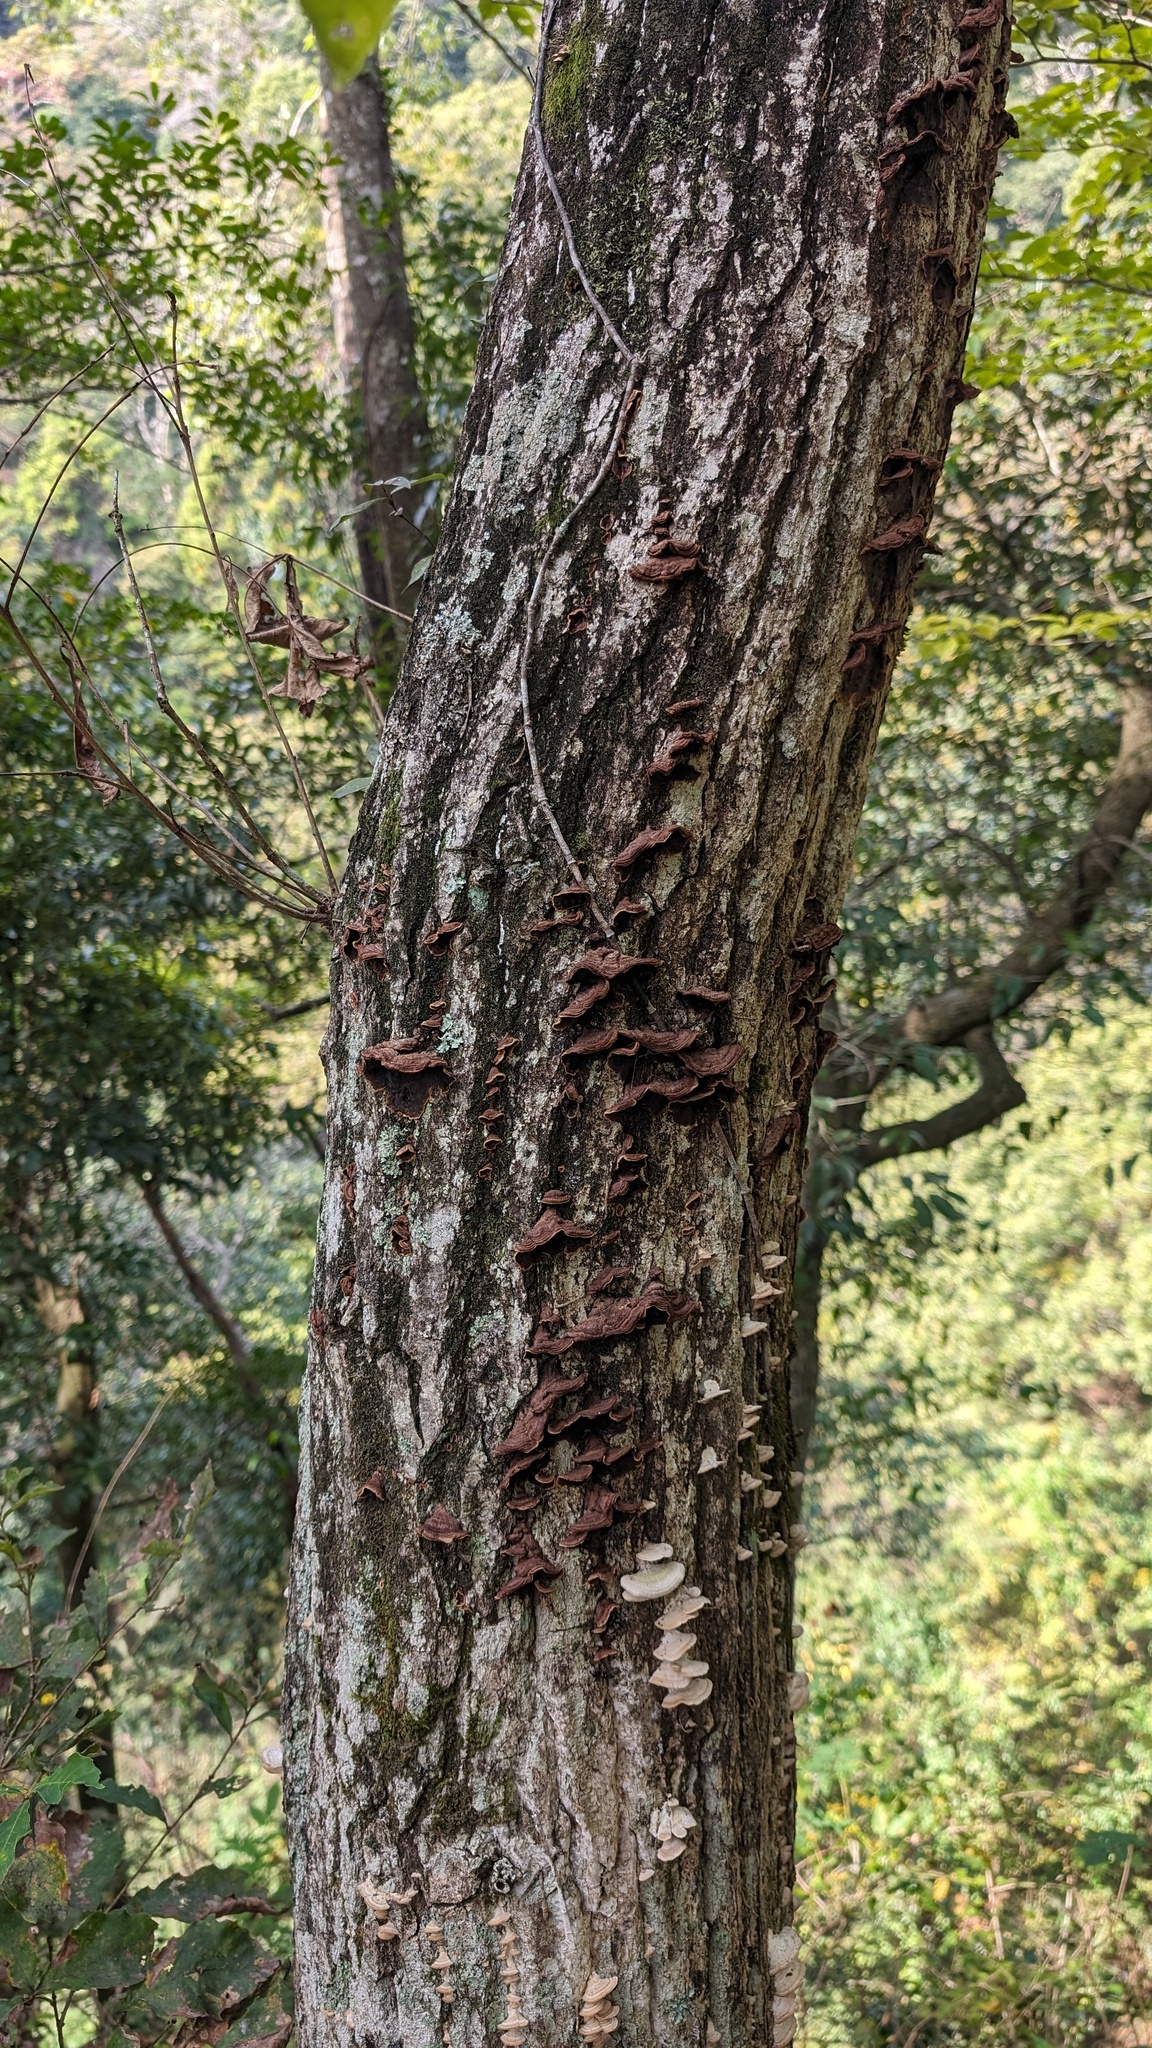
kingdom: Fungi
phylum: Basidiomycota
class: Agaricomycetes
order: Corticiales
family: Punctulariaceae
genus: Punctularia
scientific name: Punctularia strigosozonata
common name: White-rot fungus
